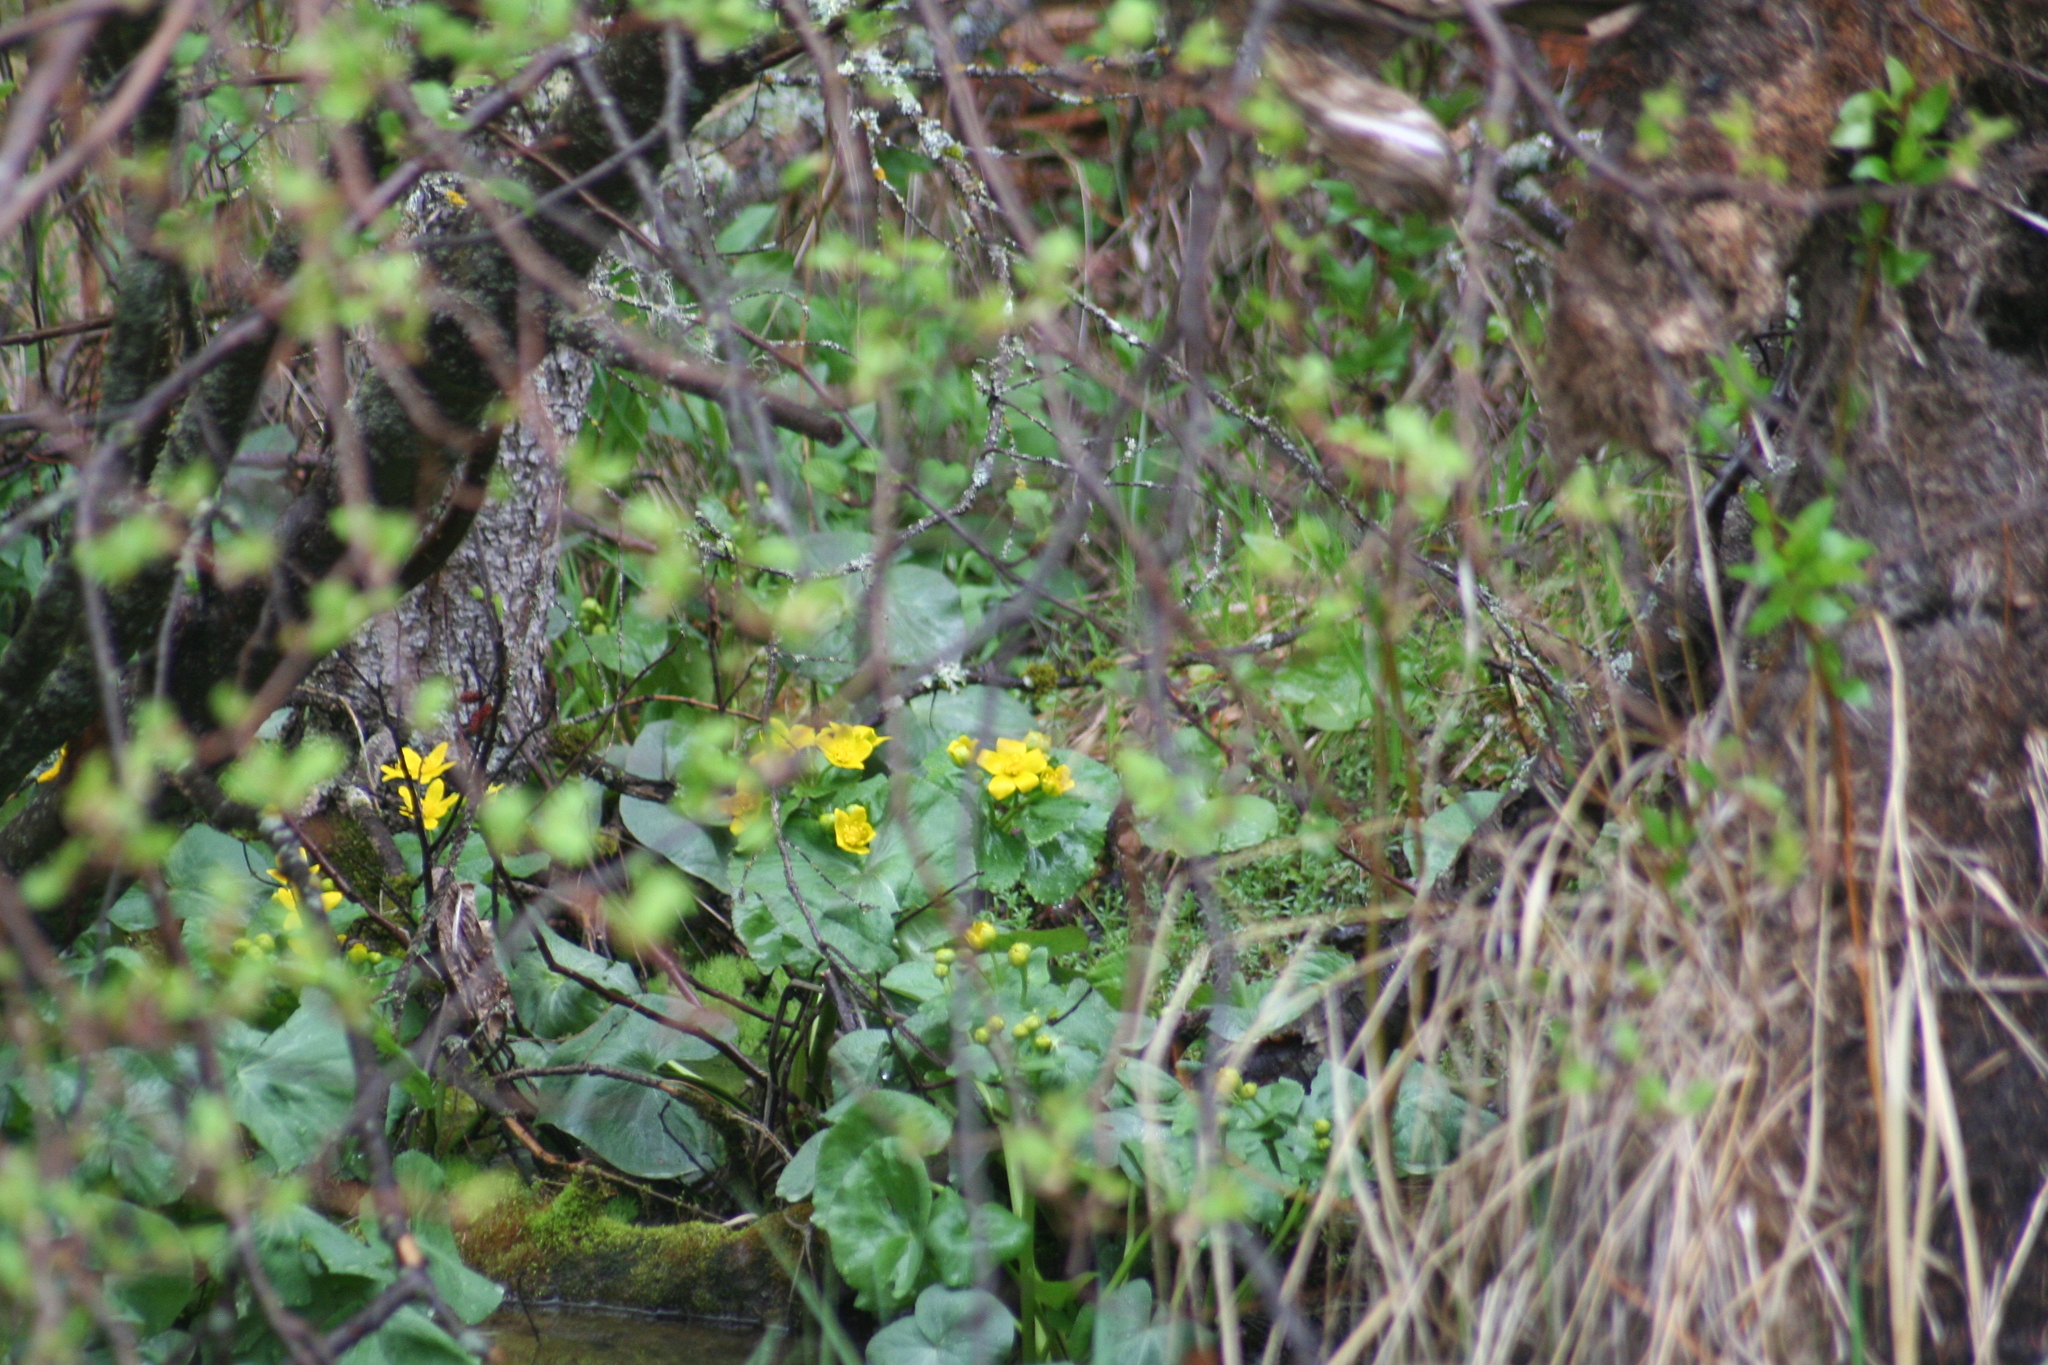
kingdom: Plantae
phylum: Tracheophyta
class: Magnoliopsida
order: Ranunculales
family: Ranunculaceae
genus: Caltha
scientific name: Caltha palustris
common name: Marsh marigold
